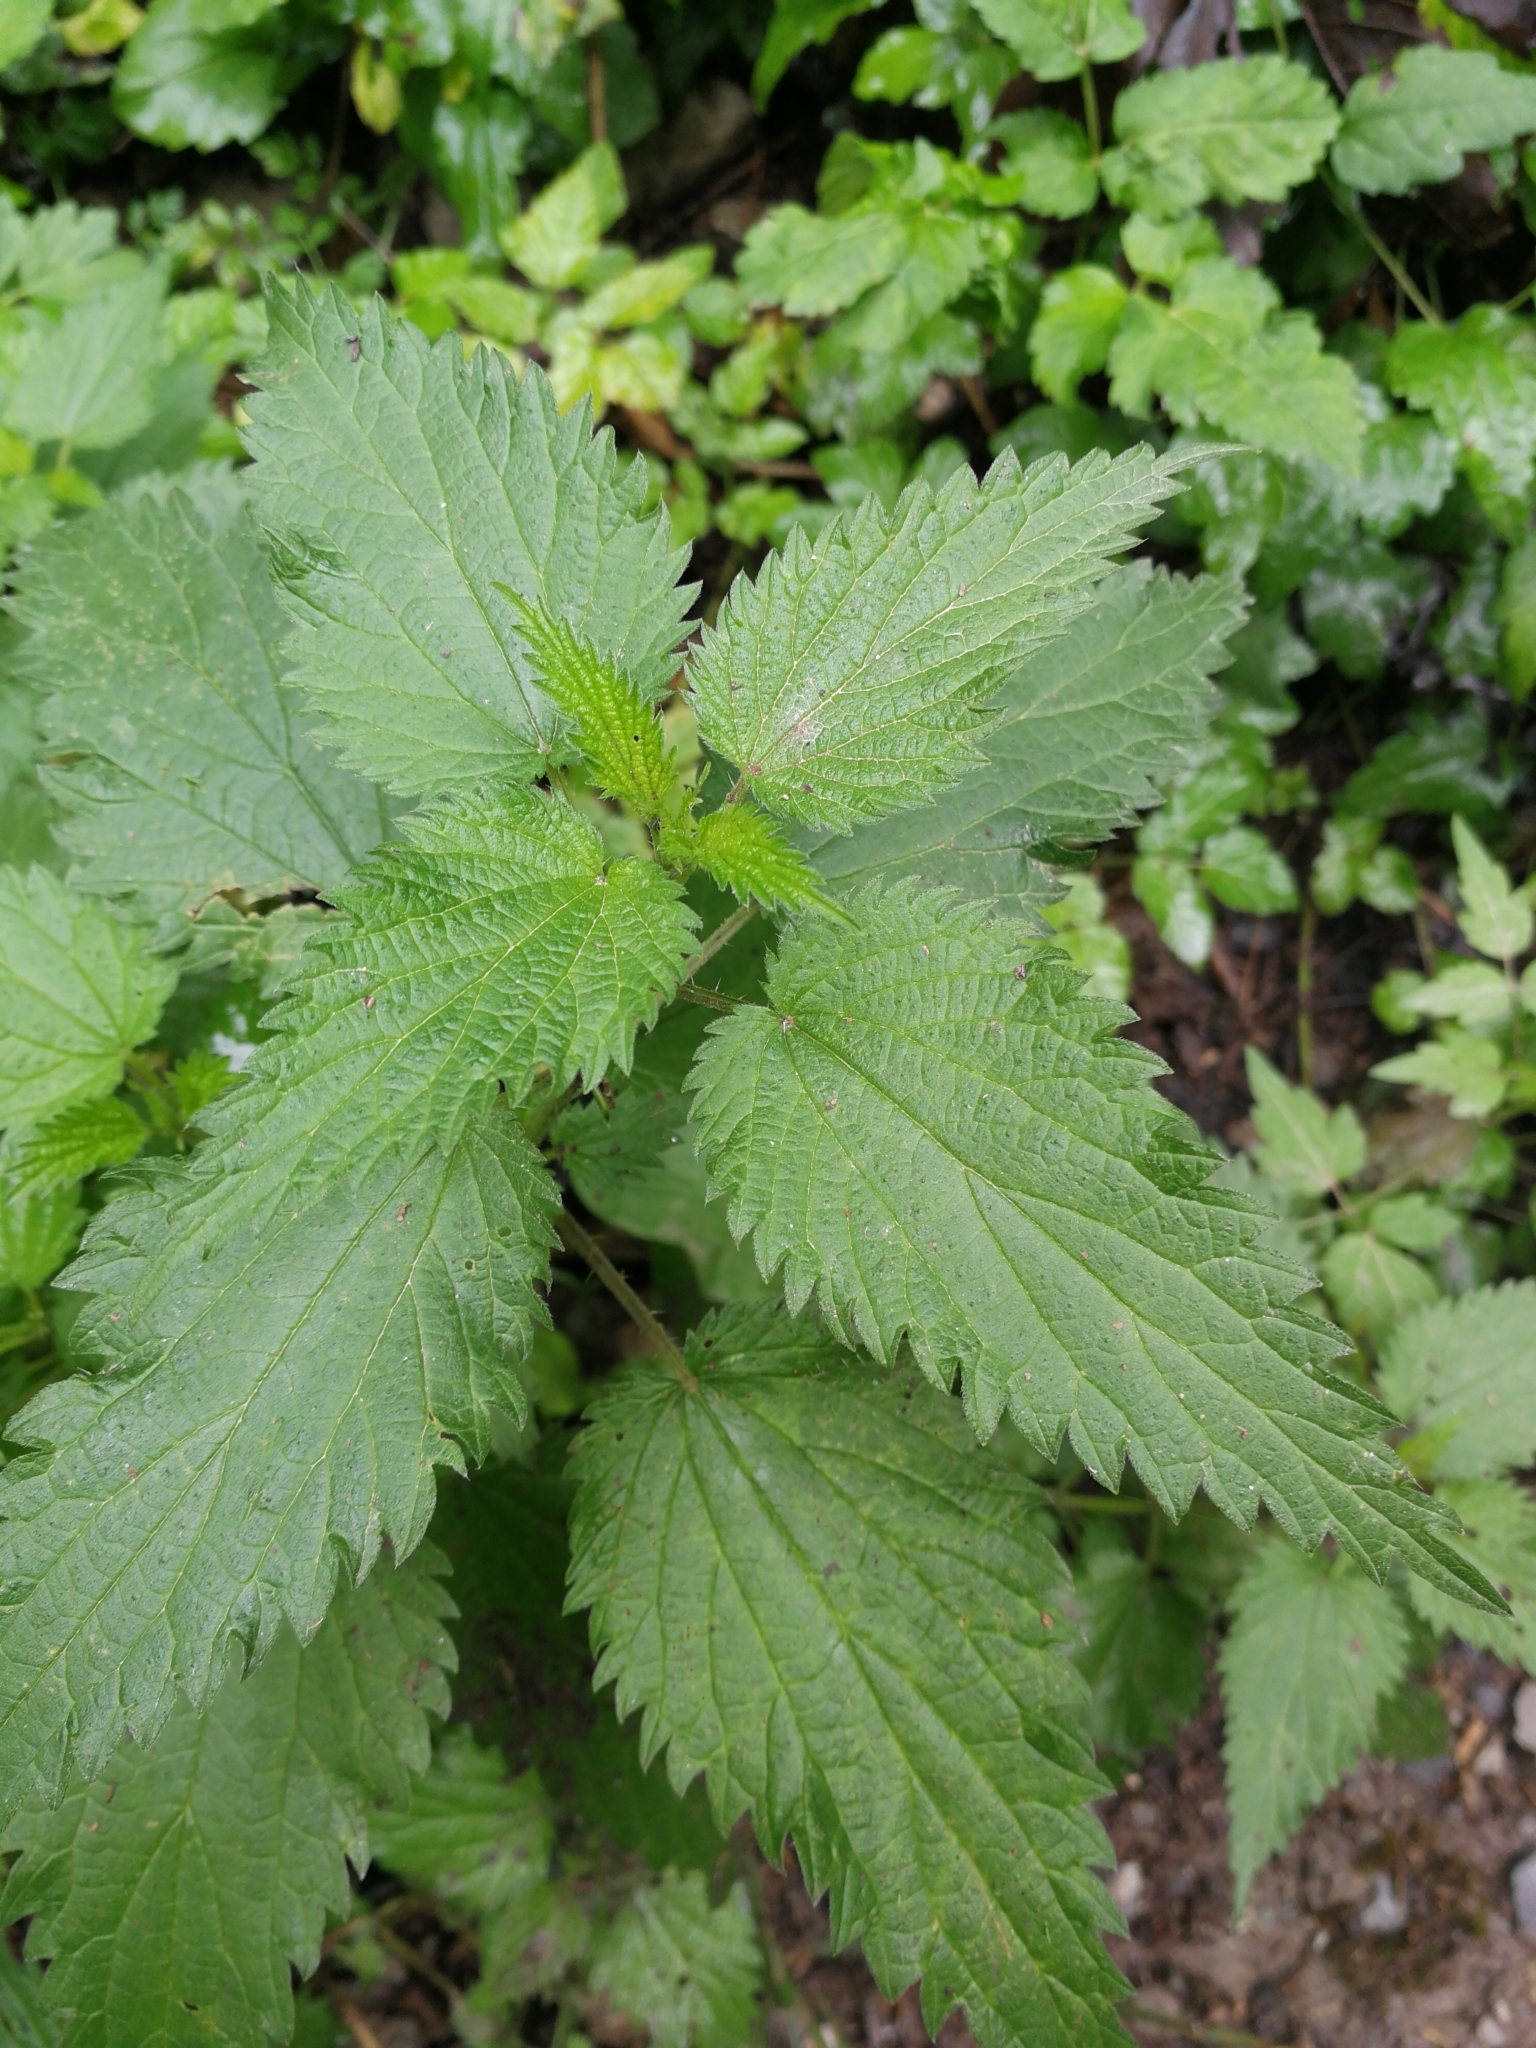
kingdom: Plantae
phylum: Tracheophyta
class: Magnoliopsida
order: Rosales
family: Urticaceae
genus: Urtica
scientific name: Urtica dioica
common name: Common nettle
